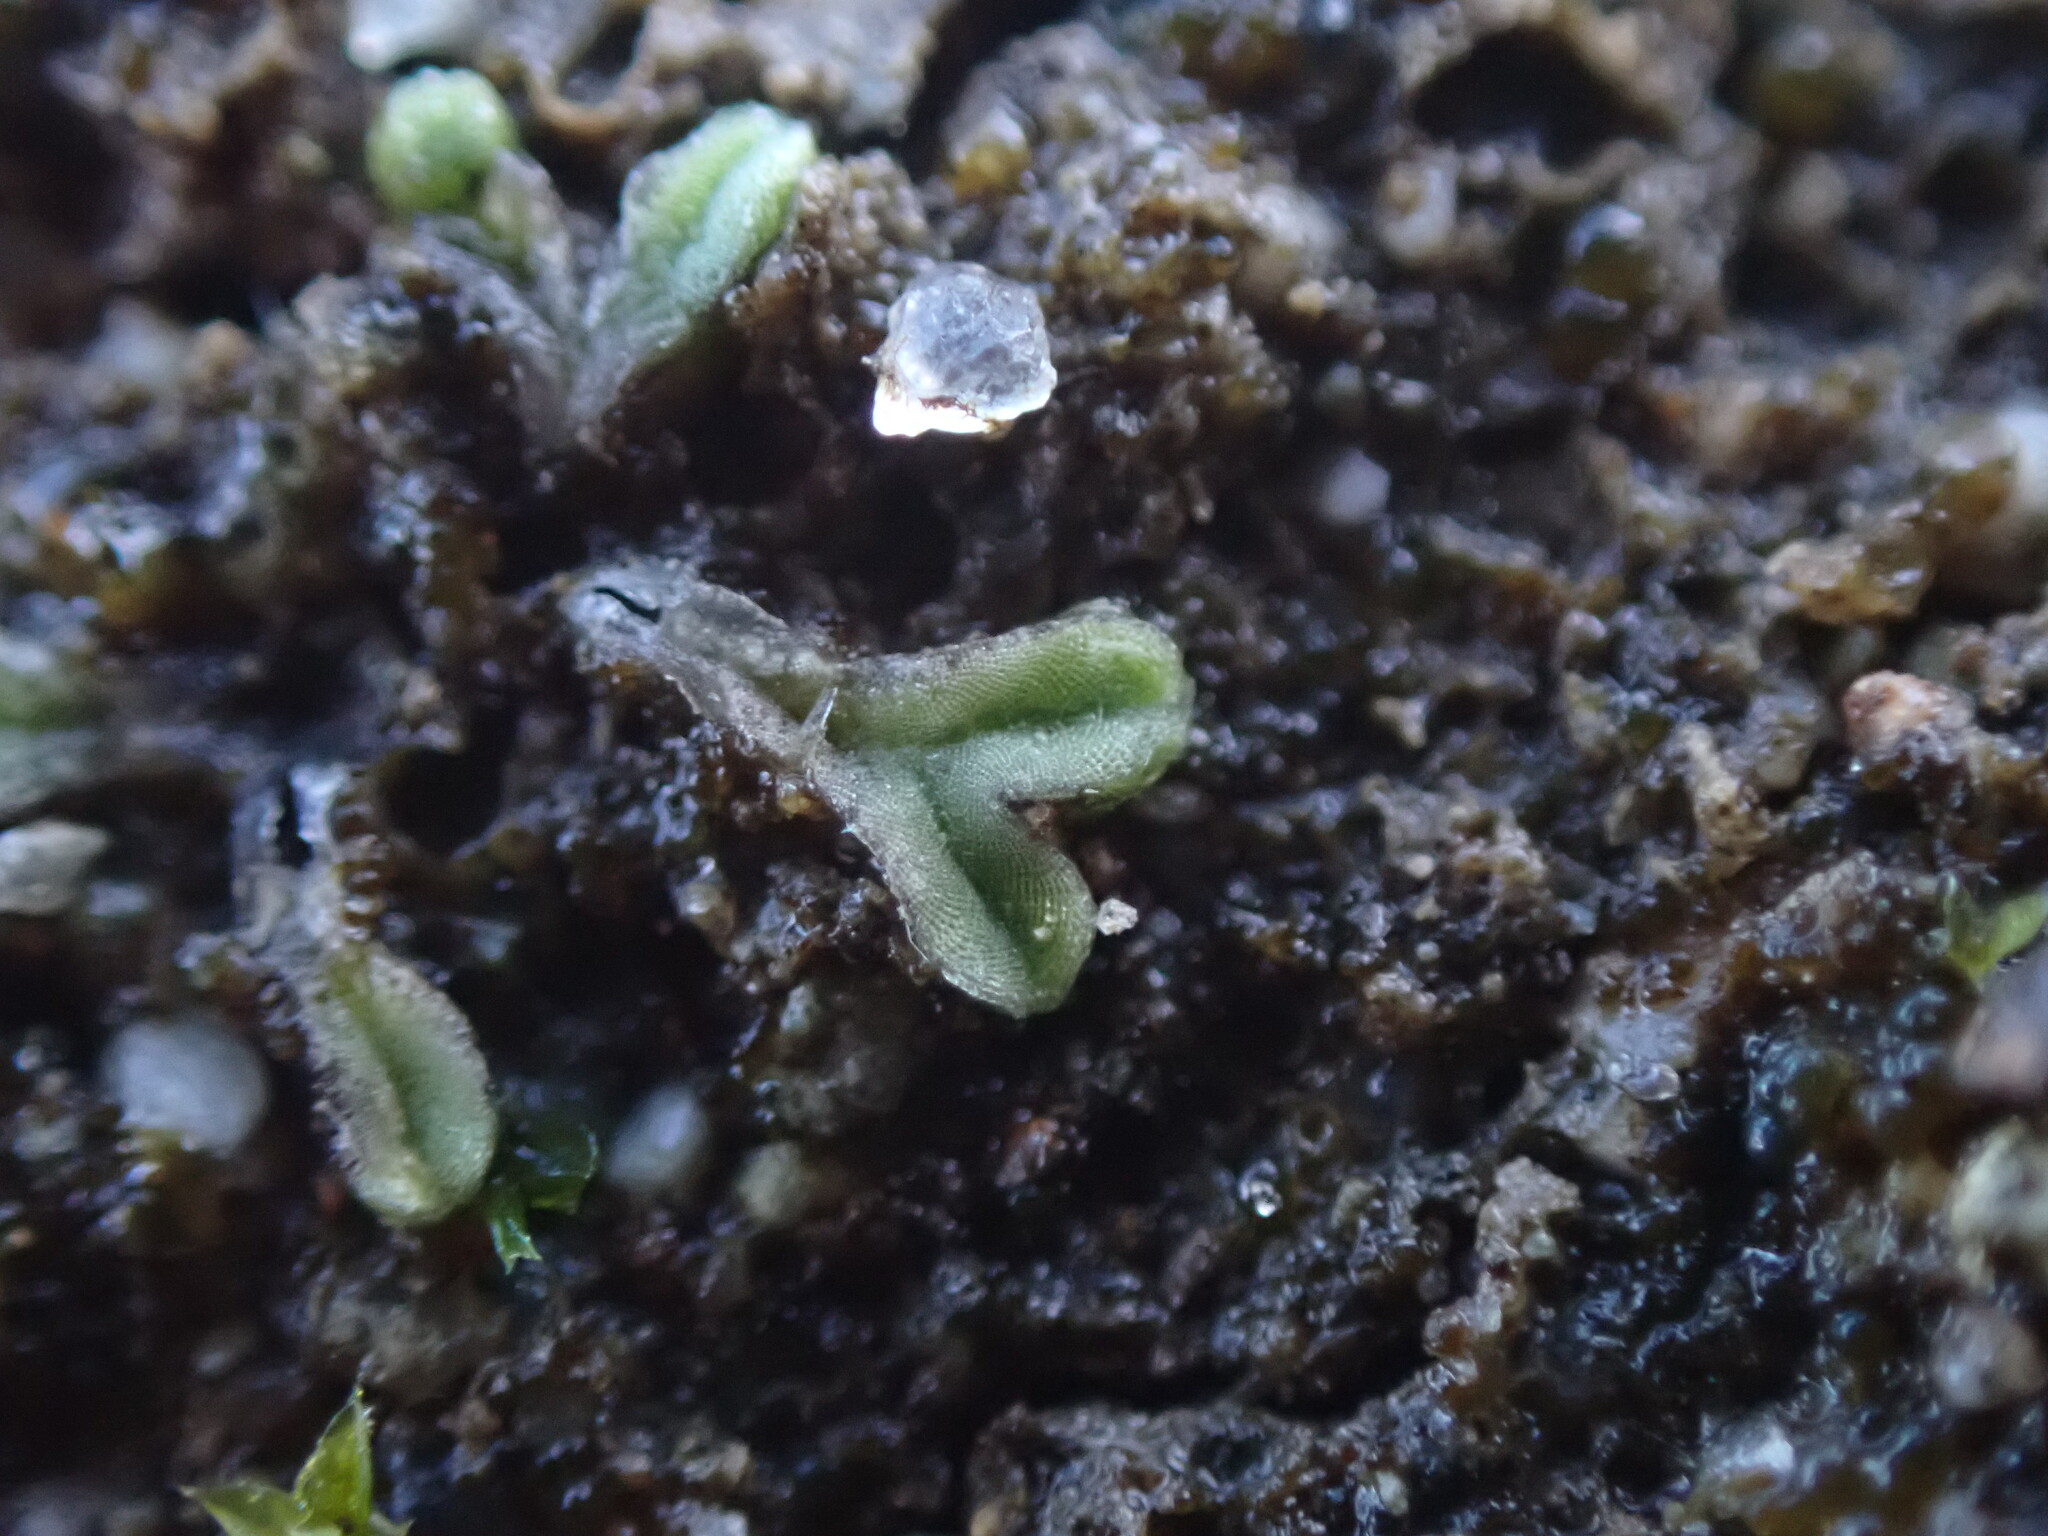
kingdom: Plantae
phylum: Marchantiophyta
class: Marchantiopsida
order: Marchantiales
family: Ricciaceae
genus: Riccia
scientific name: Riccia sorocarpa
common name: Common crystalwort
